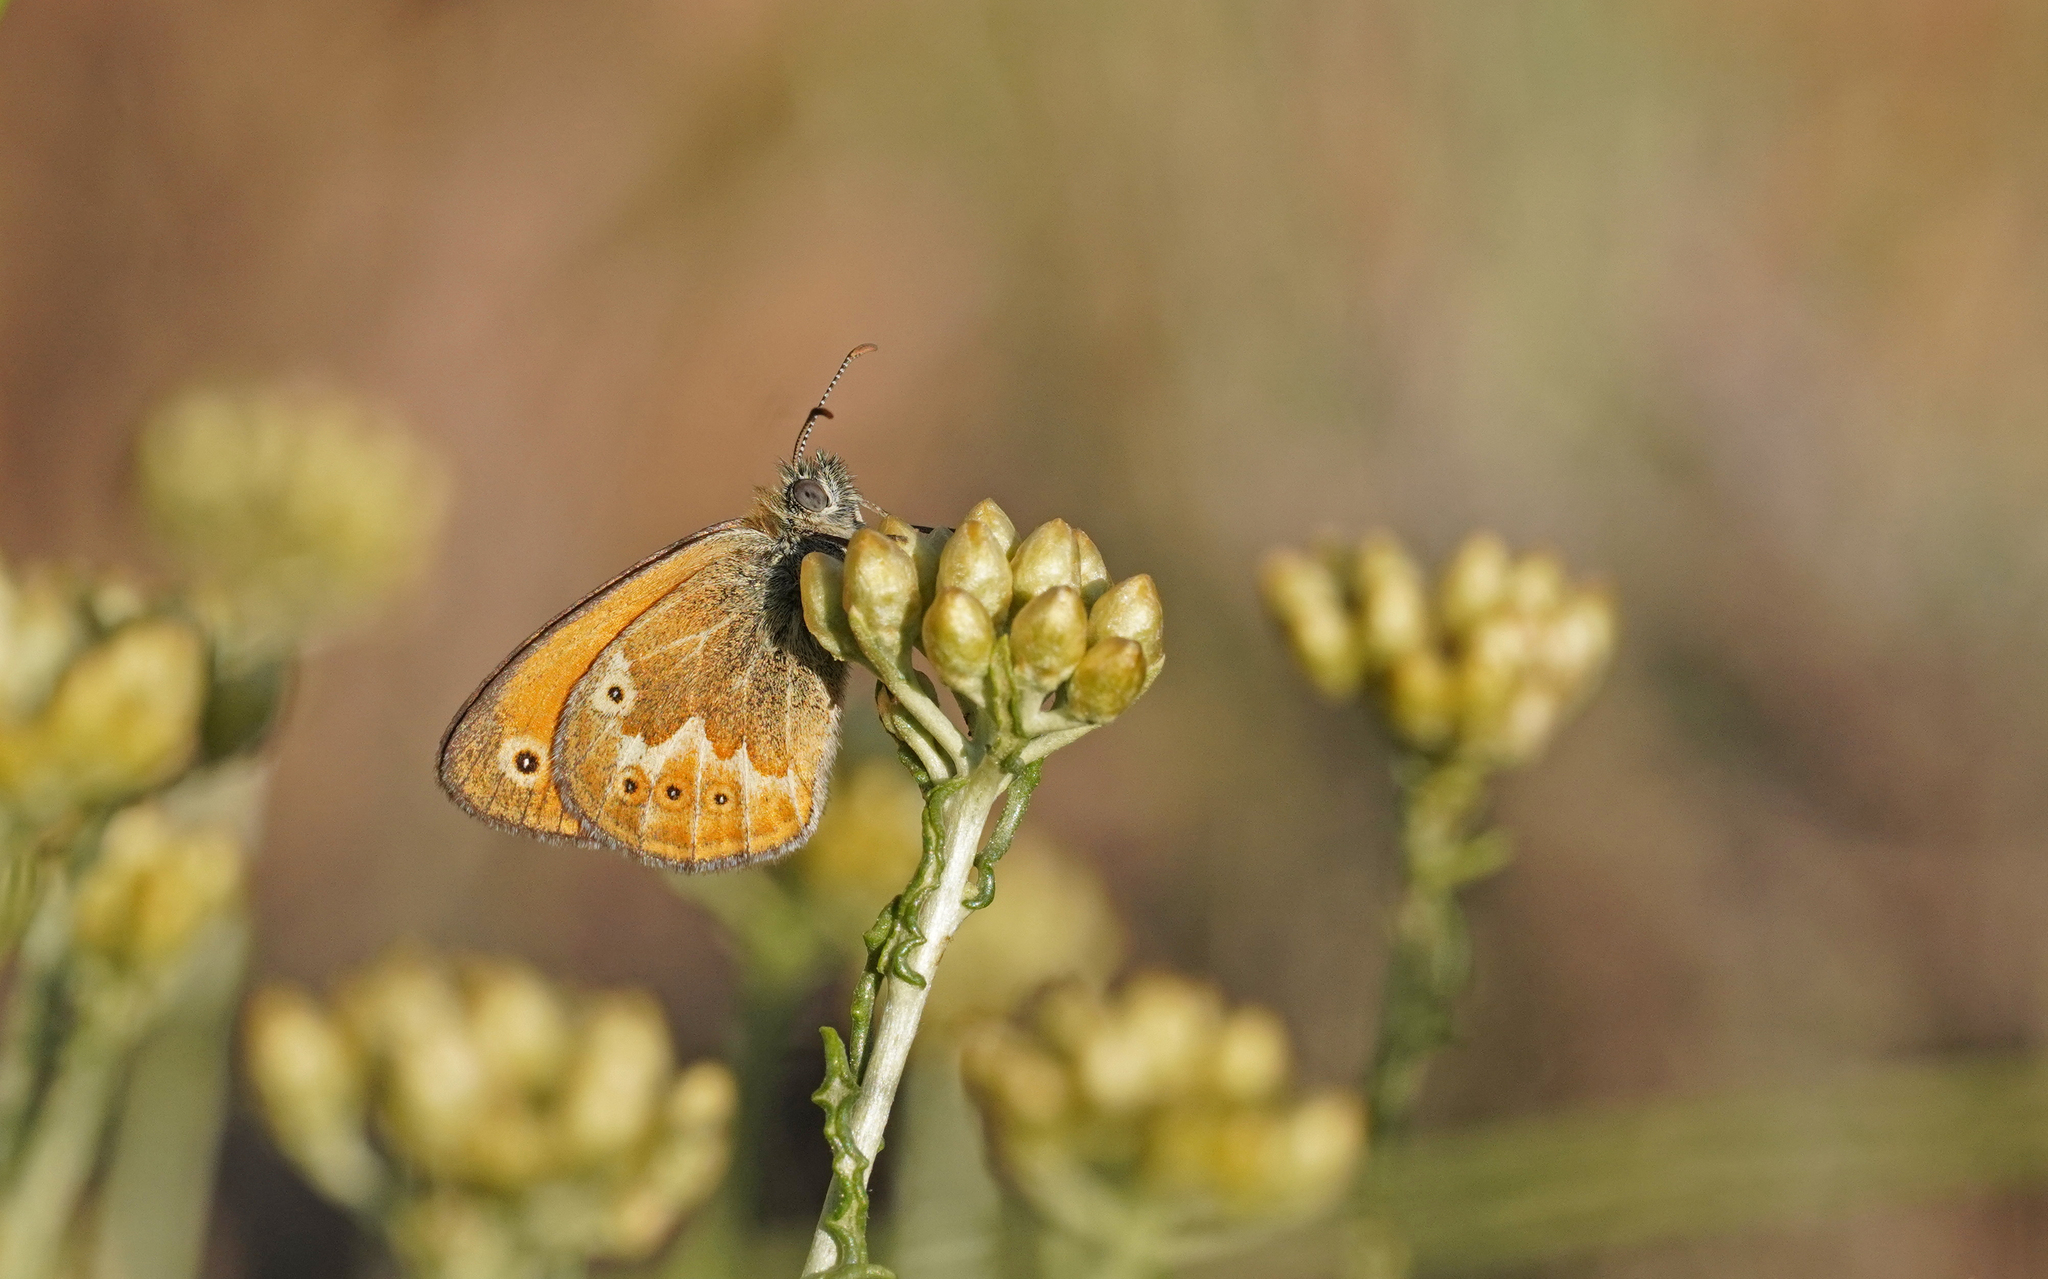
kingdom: Animalia
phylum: Arthropoda
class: Insecta
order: Lepidoptera
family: Nymphalidae
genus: Coenonympha
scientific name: Coenonympha corinna
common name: Corsican heath
